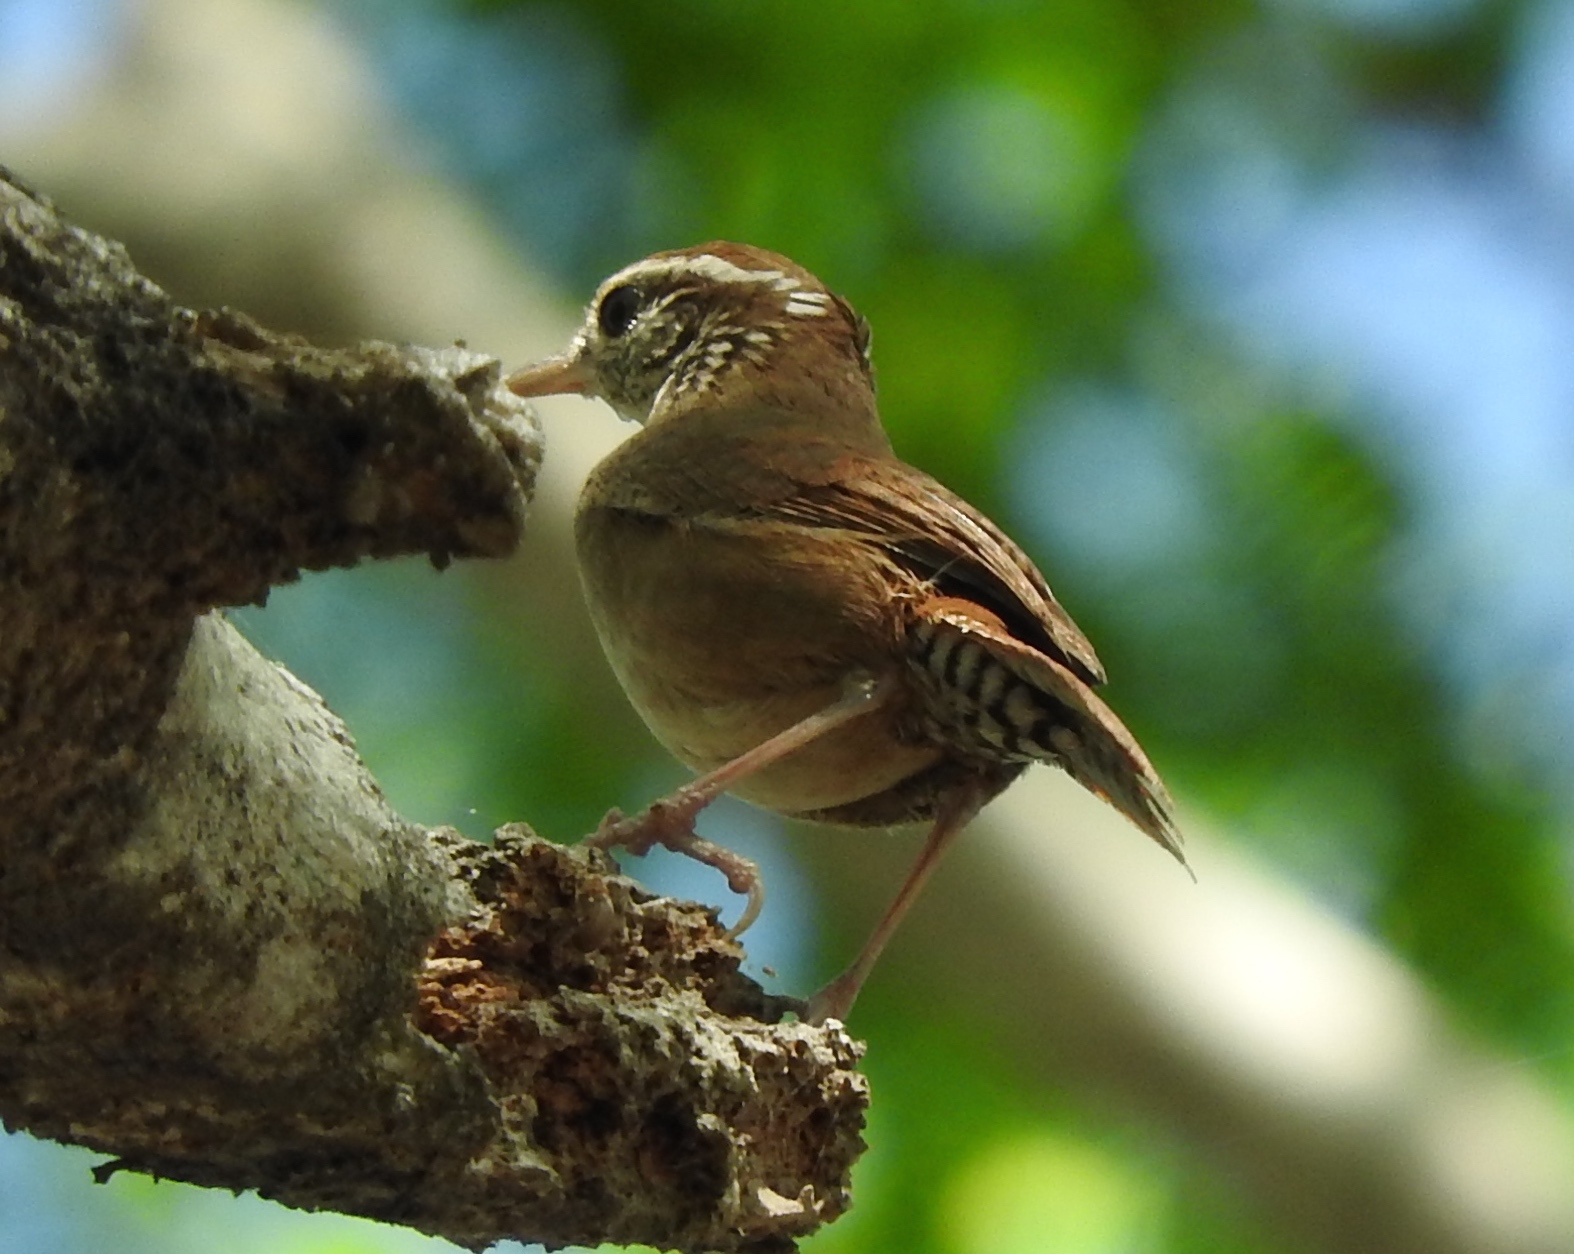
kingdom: Animalia
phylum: Chordata
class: Aves
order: Passeriformes
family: Troglodytidae
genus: Thryophilus
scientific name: Thryophilus sinaloa
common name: Sinaloa wren
